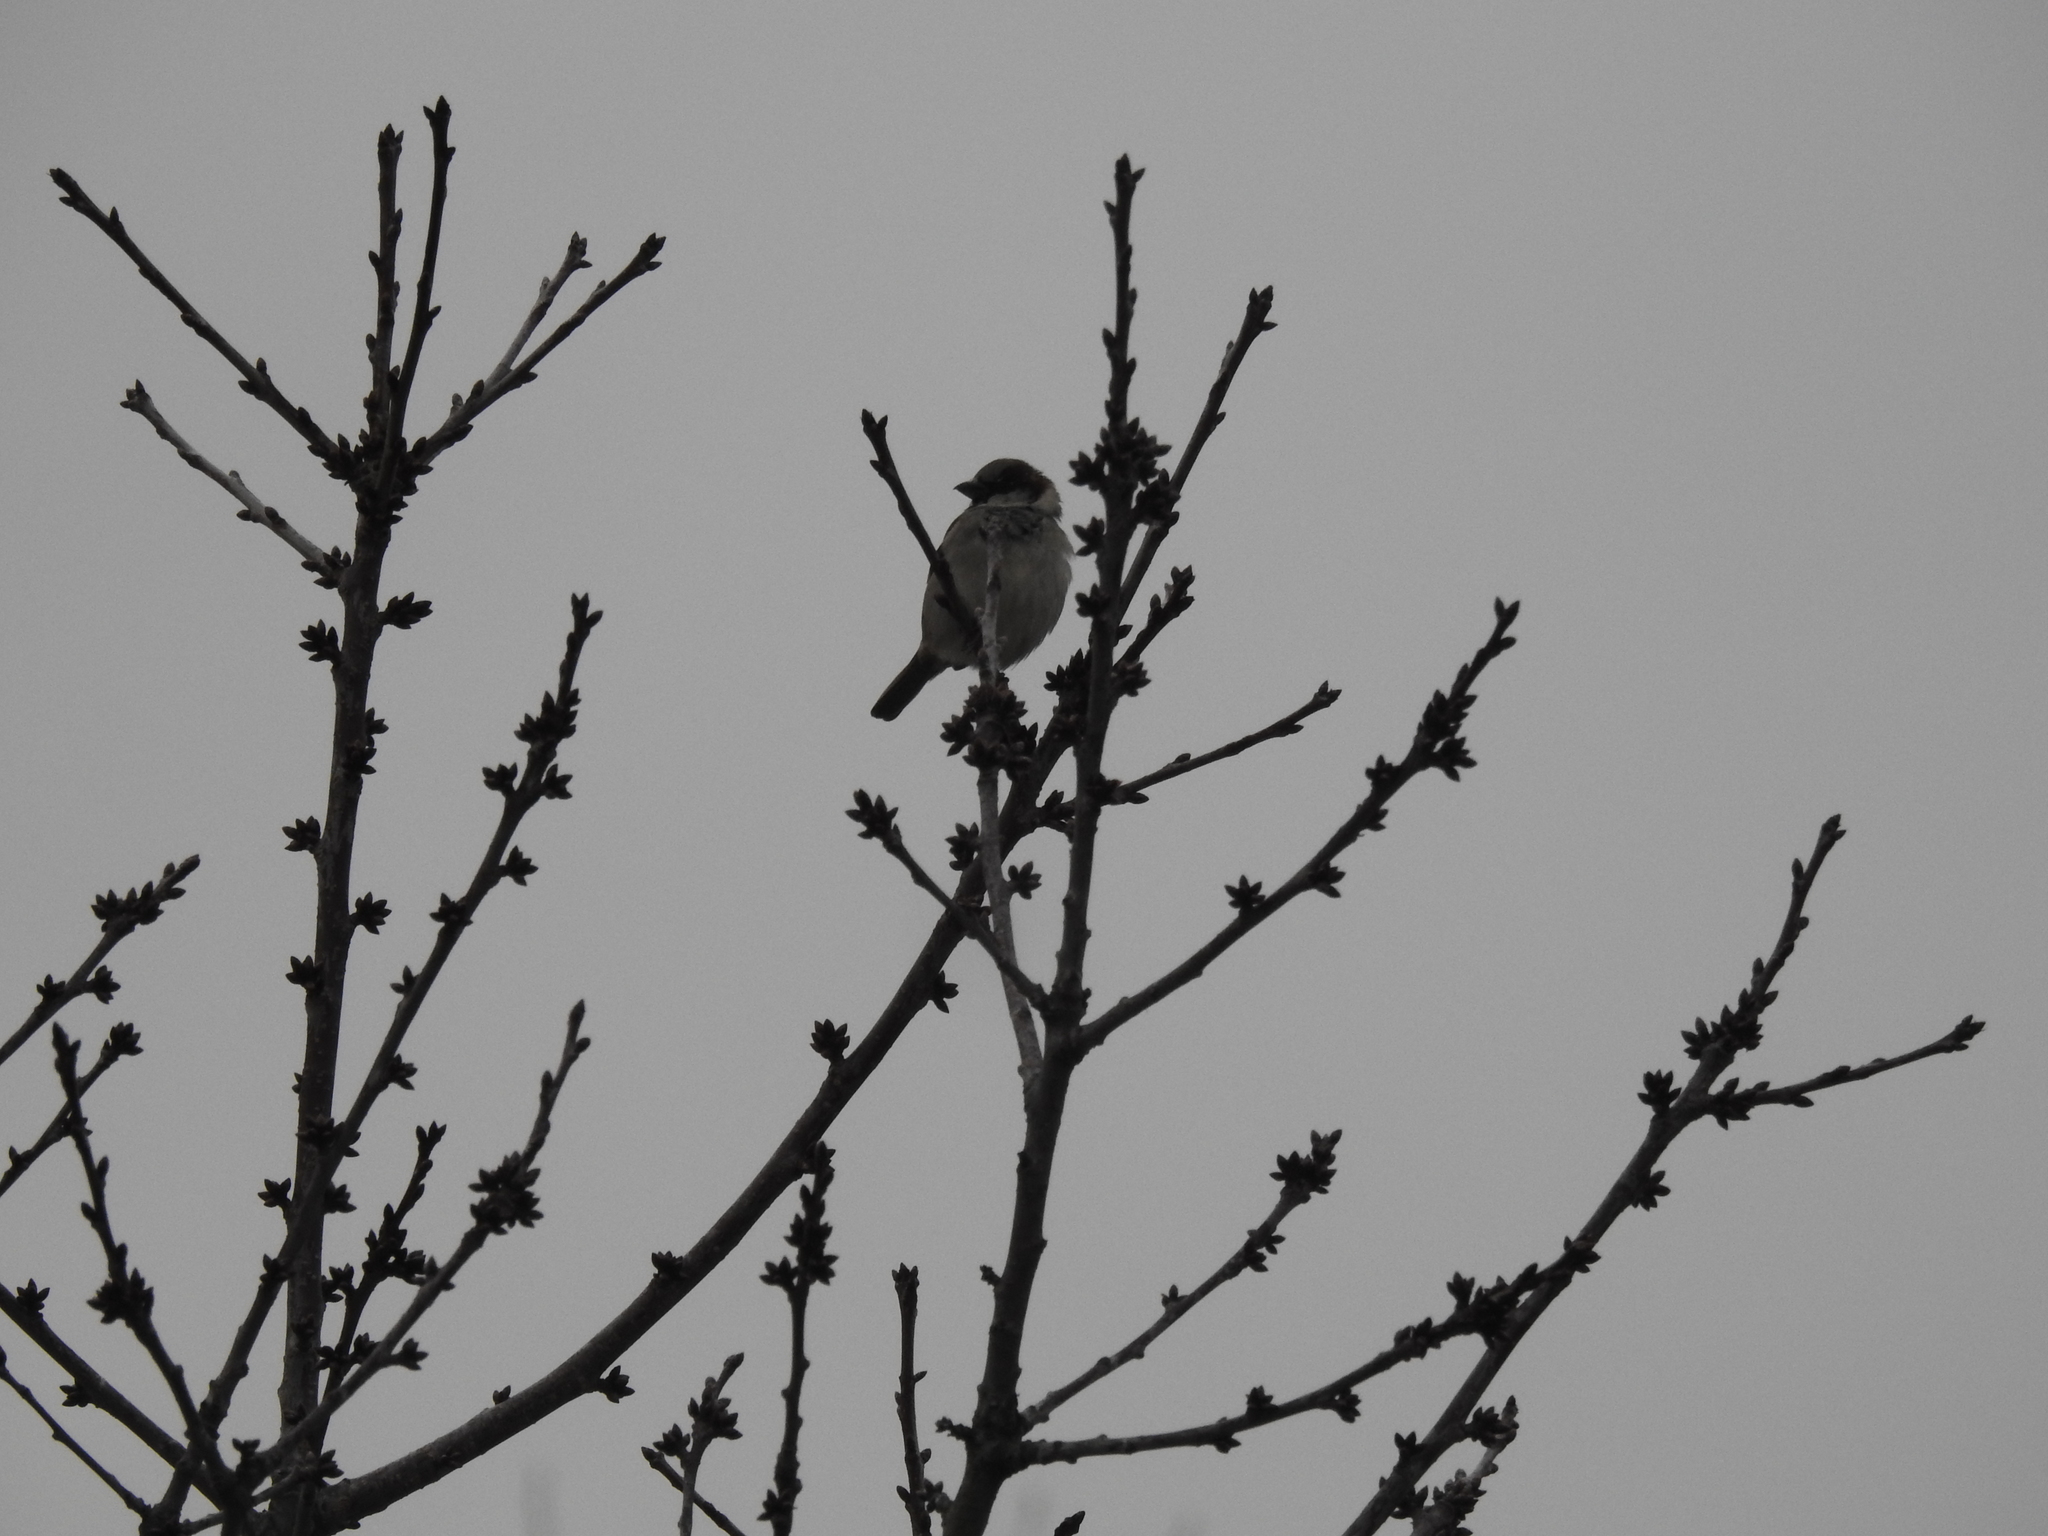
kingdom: Animalia
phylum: Chordata
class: Aves
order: Passeriformes
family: Passeridae
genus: Passer
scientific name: Passer domesticus
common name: House sparrow
